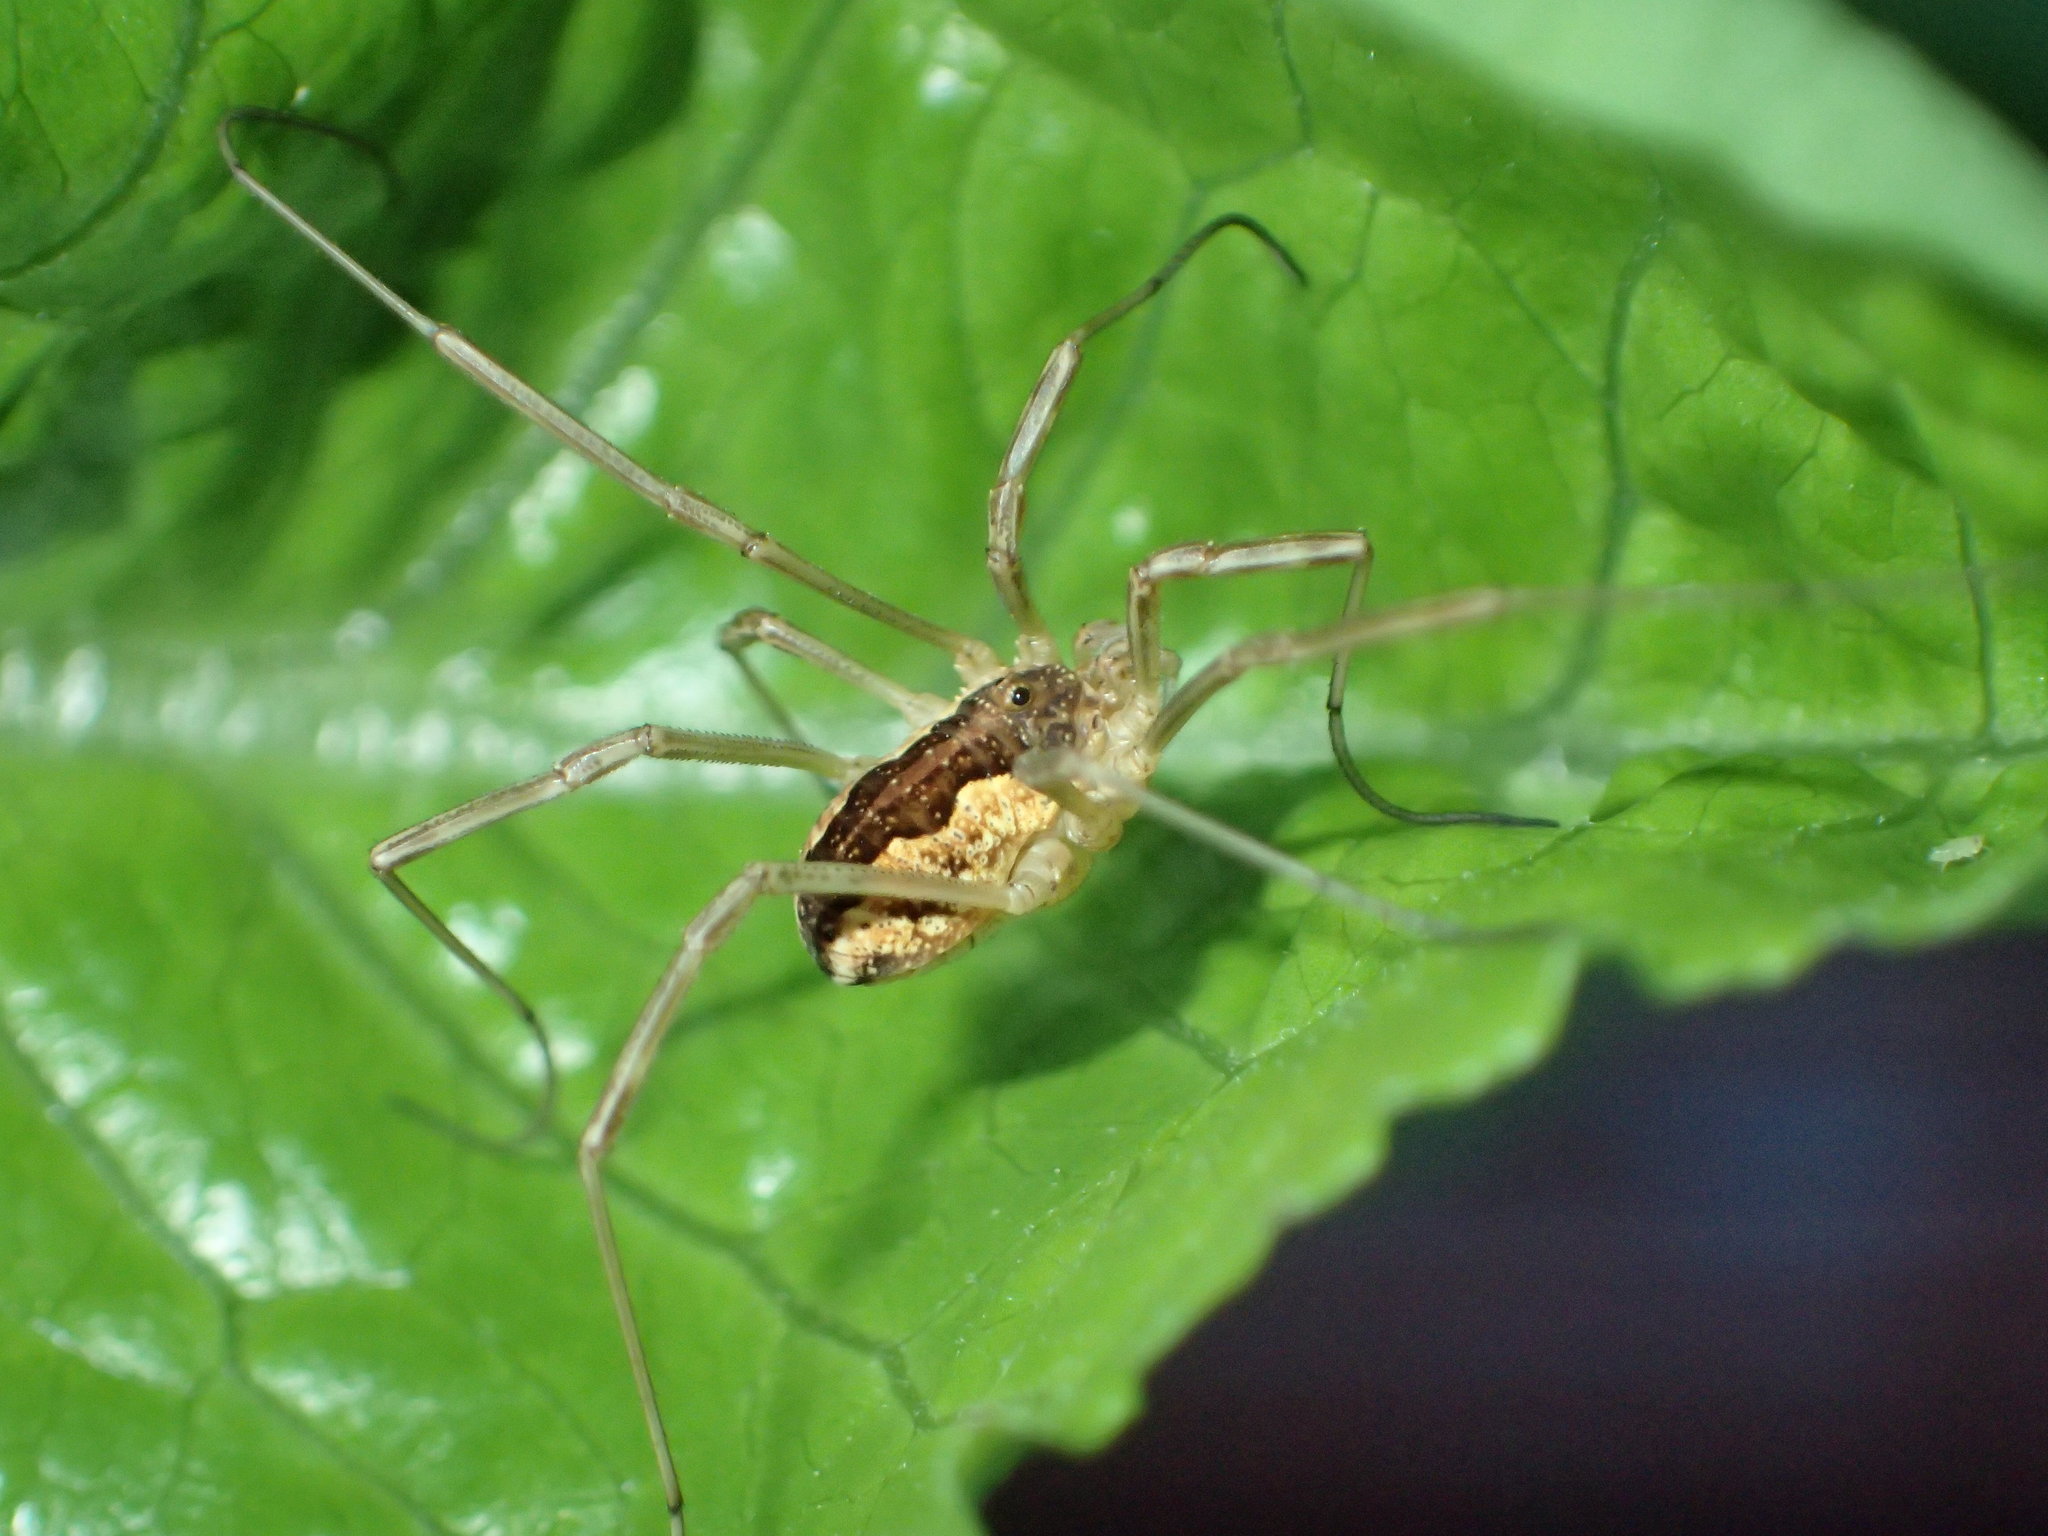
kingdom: Animalia
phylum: Arthropoda
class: Arachnida
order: Opiliones
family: Phalangiidae
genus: Mitopus
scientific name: Mitopus morio
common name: Saddleback harvestman
